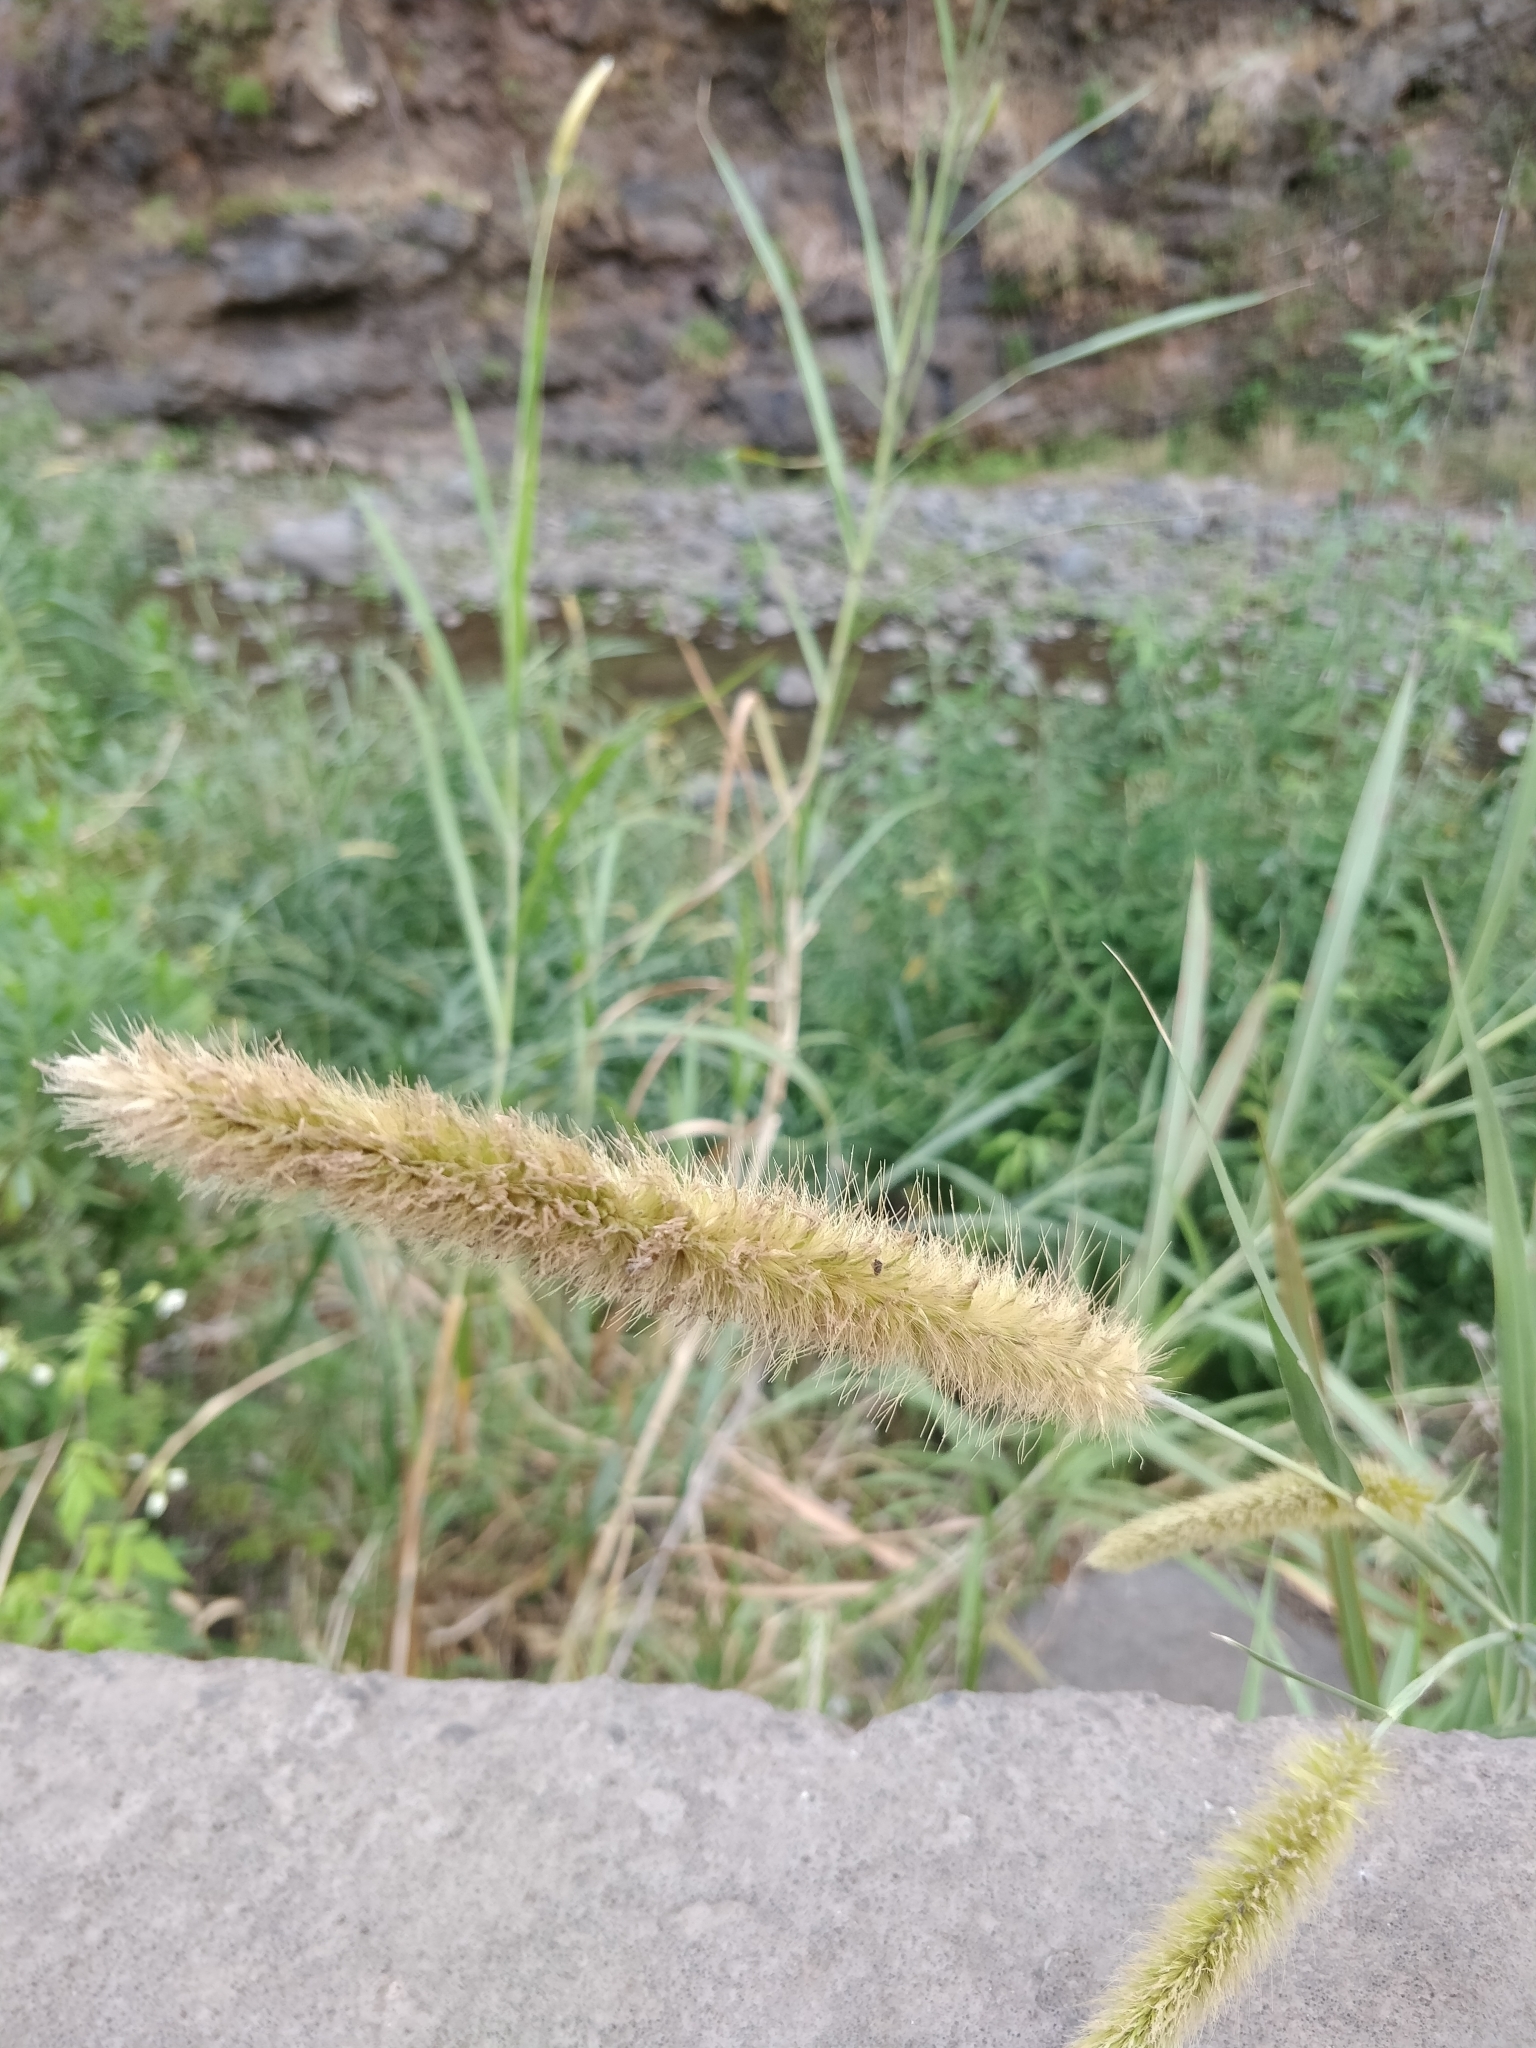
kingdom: Plantae
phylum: Tracheophyta
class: Liliopsida
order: Poales
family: Poaceae
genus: Setaria
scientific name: Setaria pumila
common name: Yellow bristle-grass
